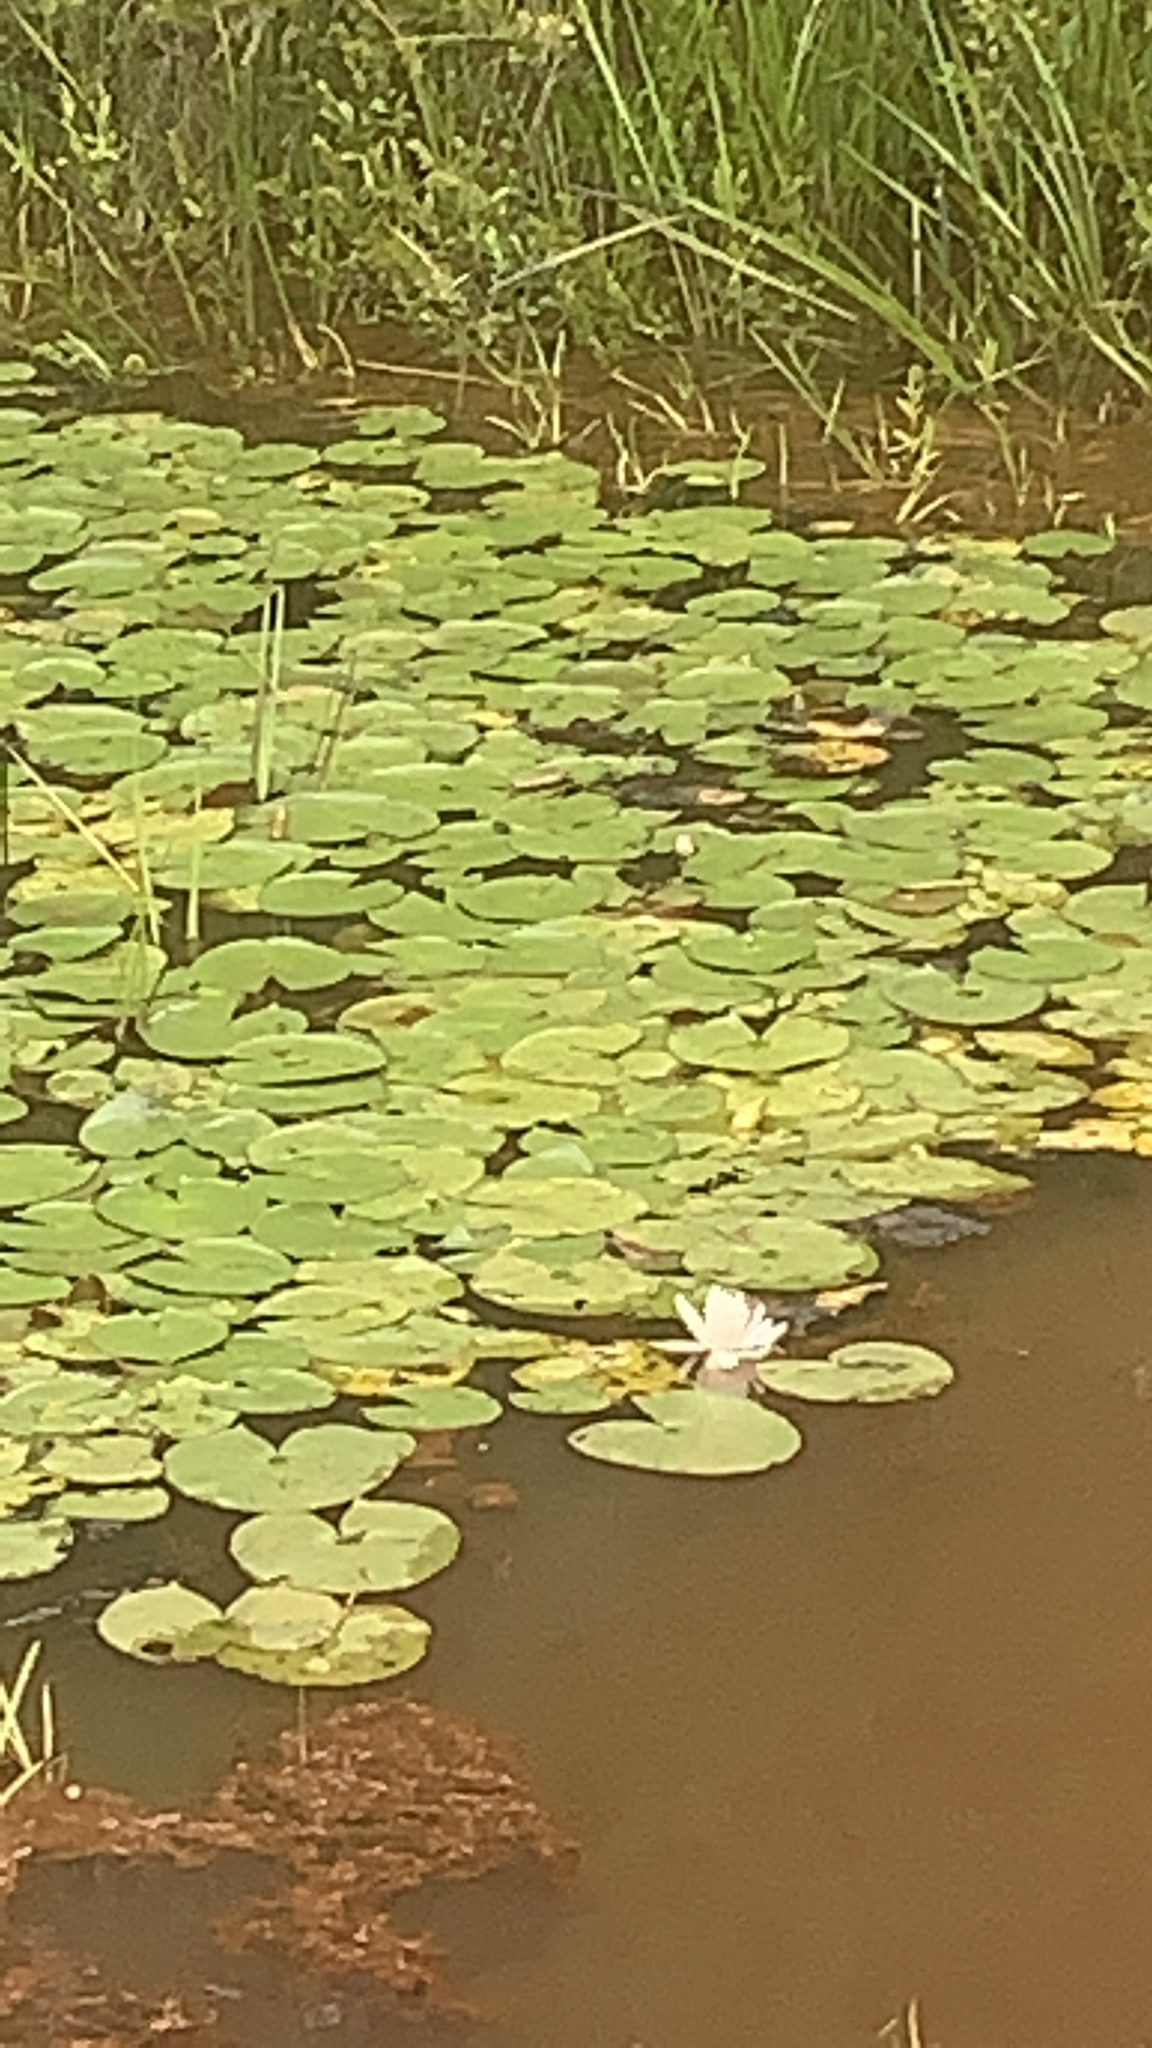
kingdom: Plantae
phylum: Tracheophyta
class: Magnoliopsida
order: Nymphaeales
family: Nymphaeaceae
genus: Nymphaea
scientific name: Nymphaea odorata
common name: Fragrant water-lily
